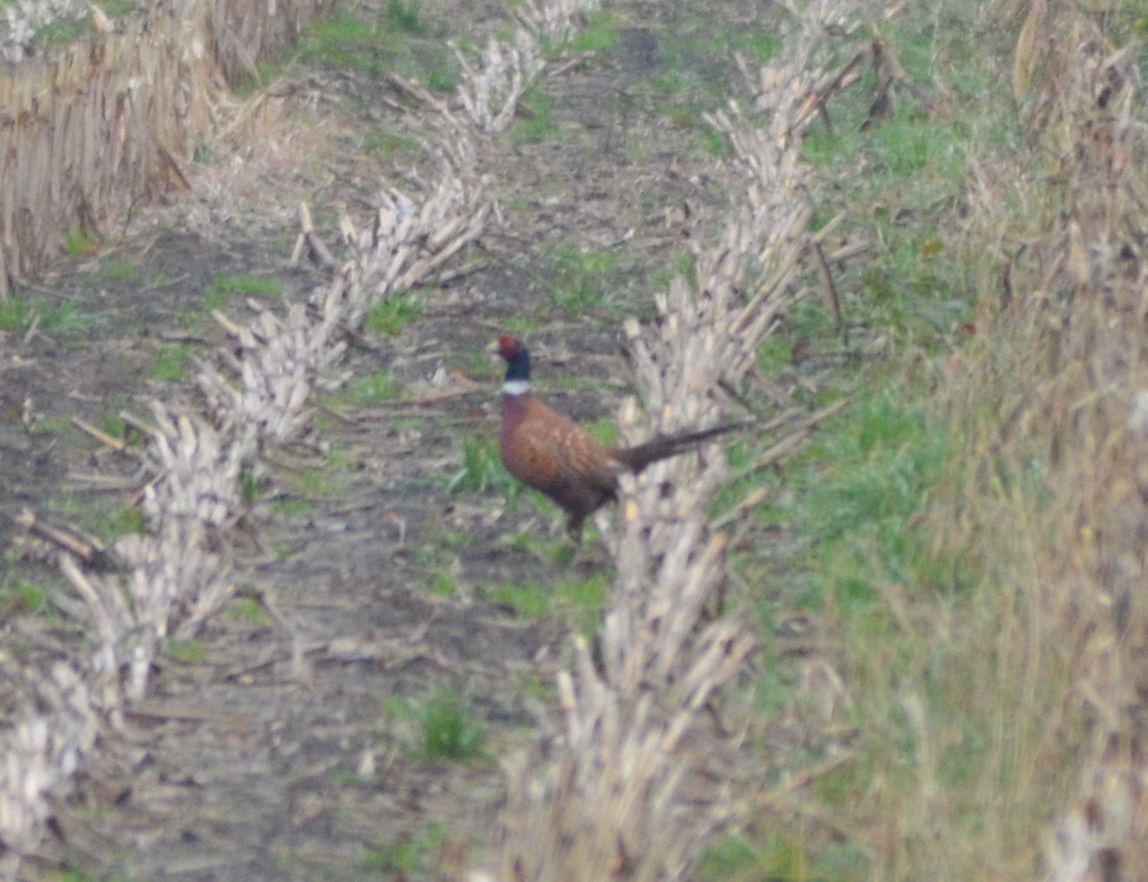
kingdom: Animalia
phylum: Chordata
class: Aves
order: Galliformes
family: Phasianidae
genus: Phasianus
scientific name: Phasianus colchicus
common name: Common pheasant
